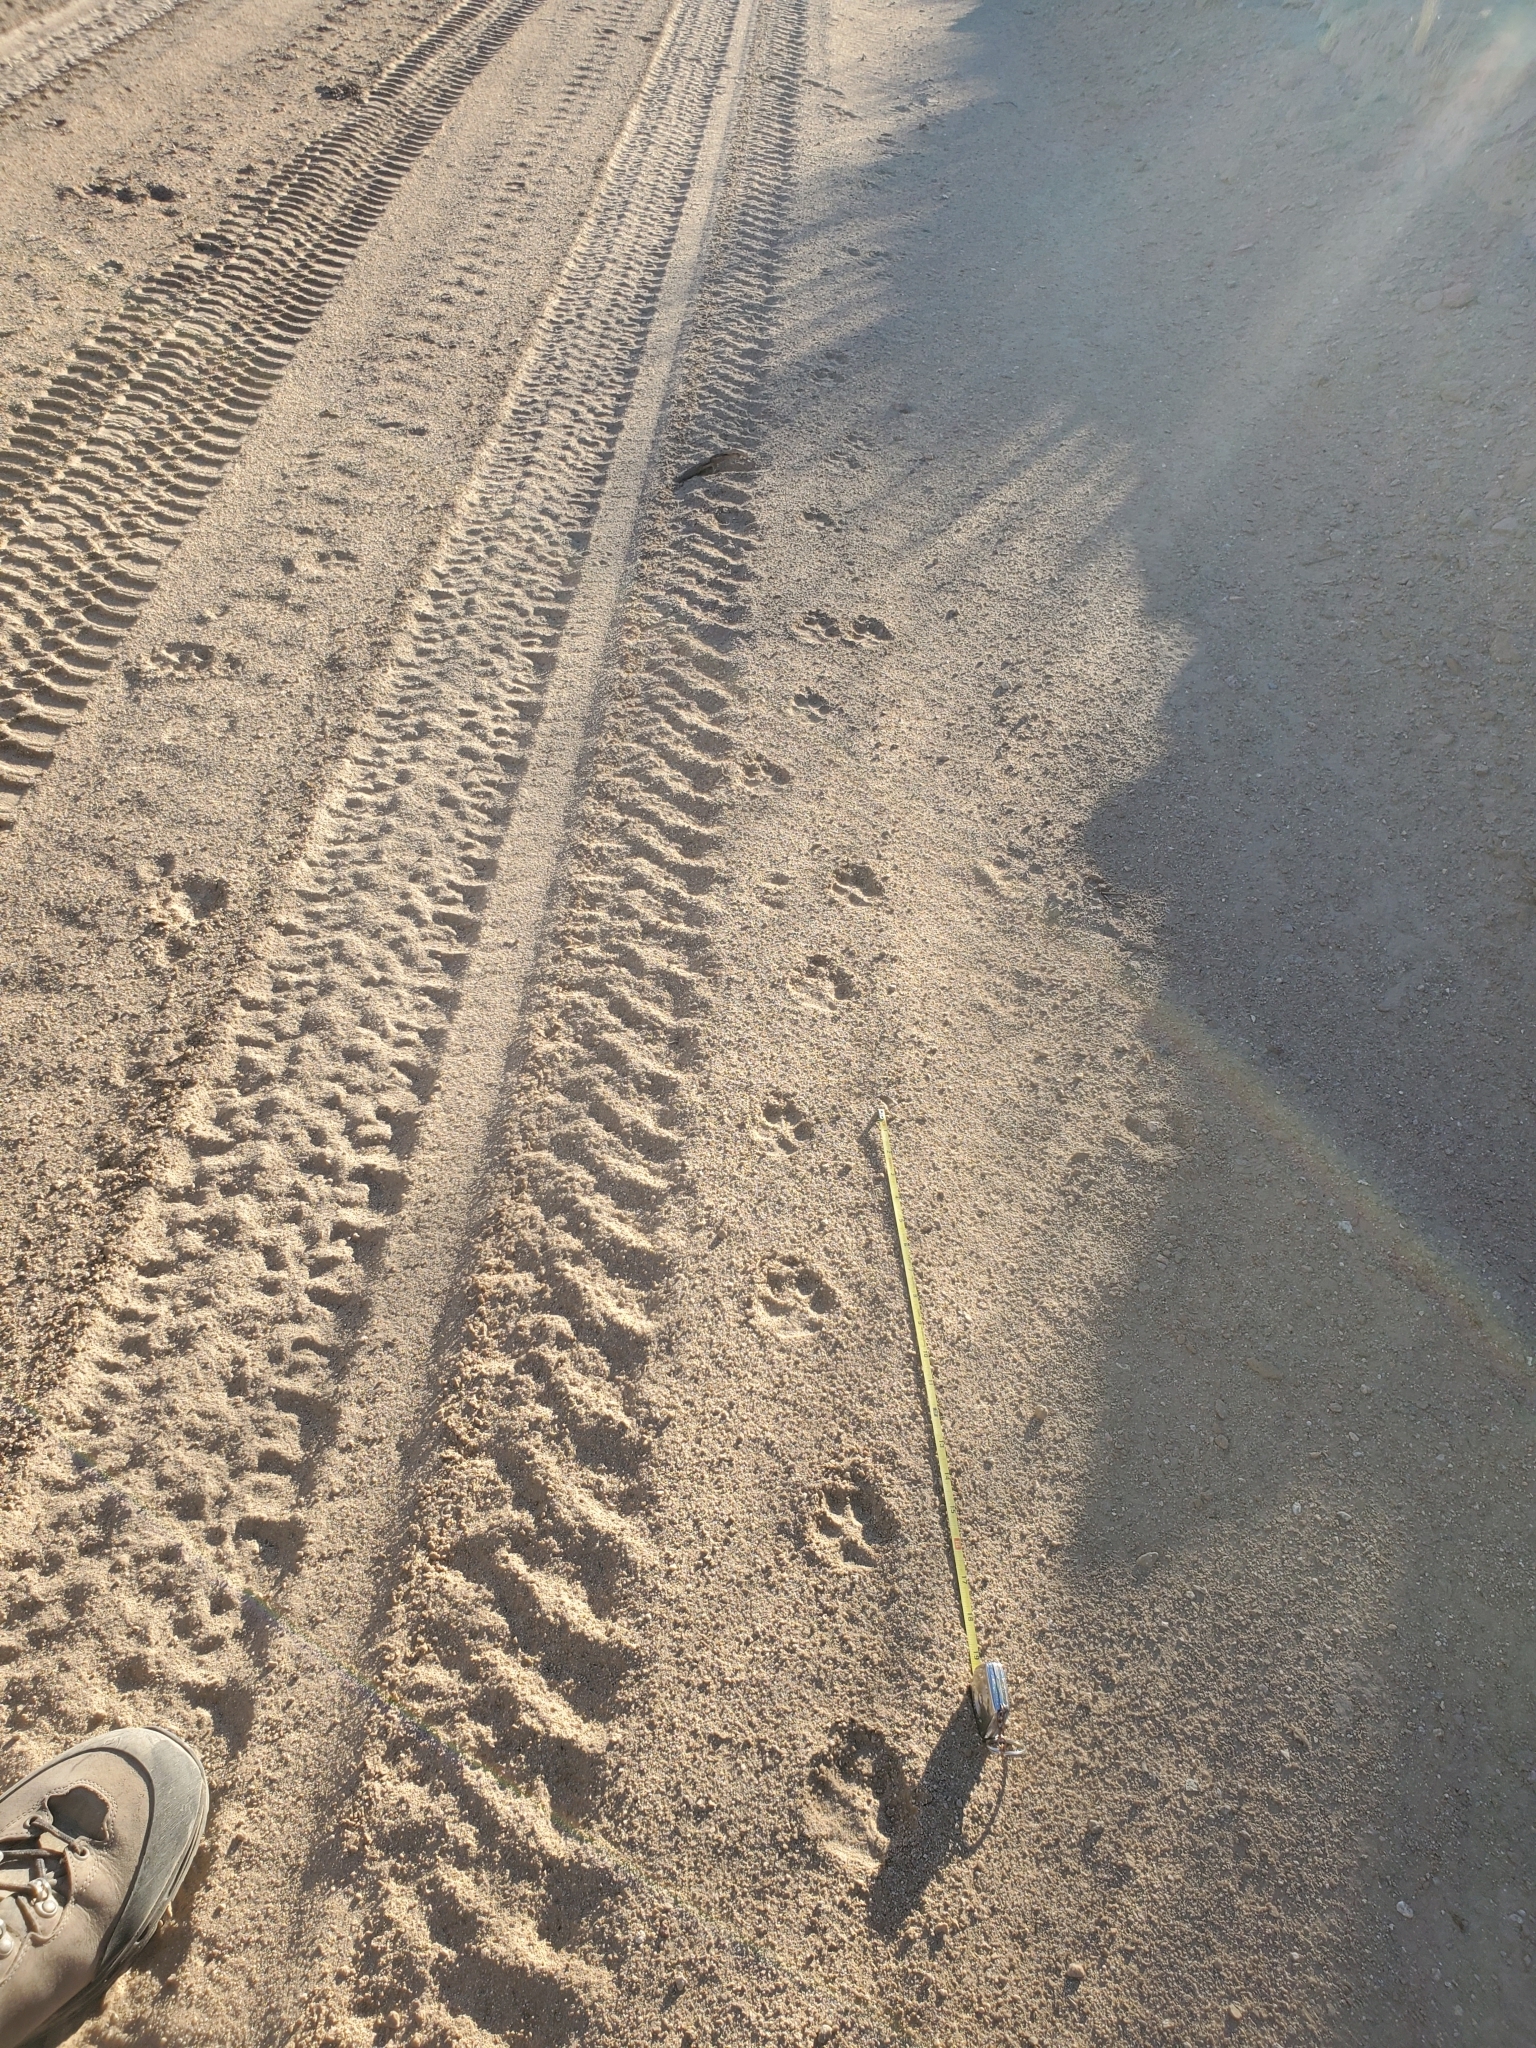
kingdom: Animalia
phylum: Chordata
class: Mammalia
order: Carnivora
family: Canidae
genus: Canis
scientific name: Canis latrans
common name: Coyote
